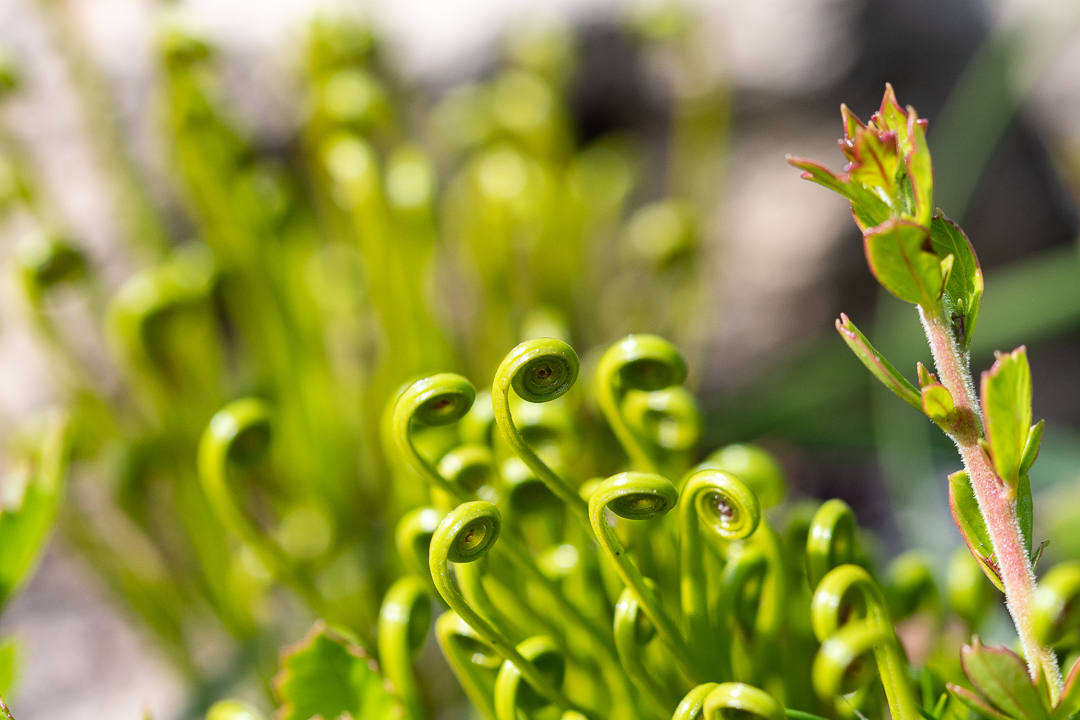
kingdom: Plantae
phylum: Tracheophyta
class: Polypodiopsida
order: Schizaeales
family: Schizaeaceae
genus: Schizaea
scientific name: Schizaea pectinata
